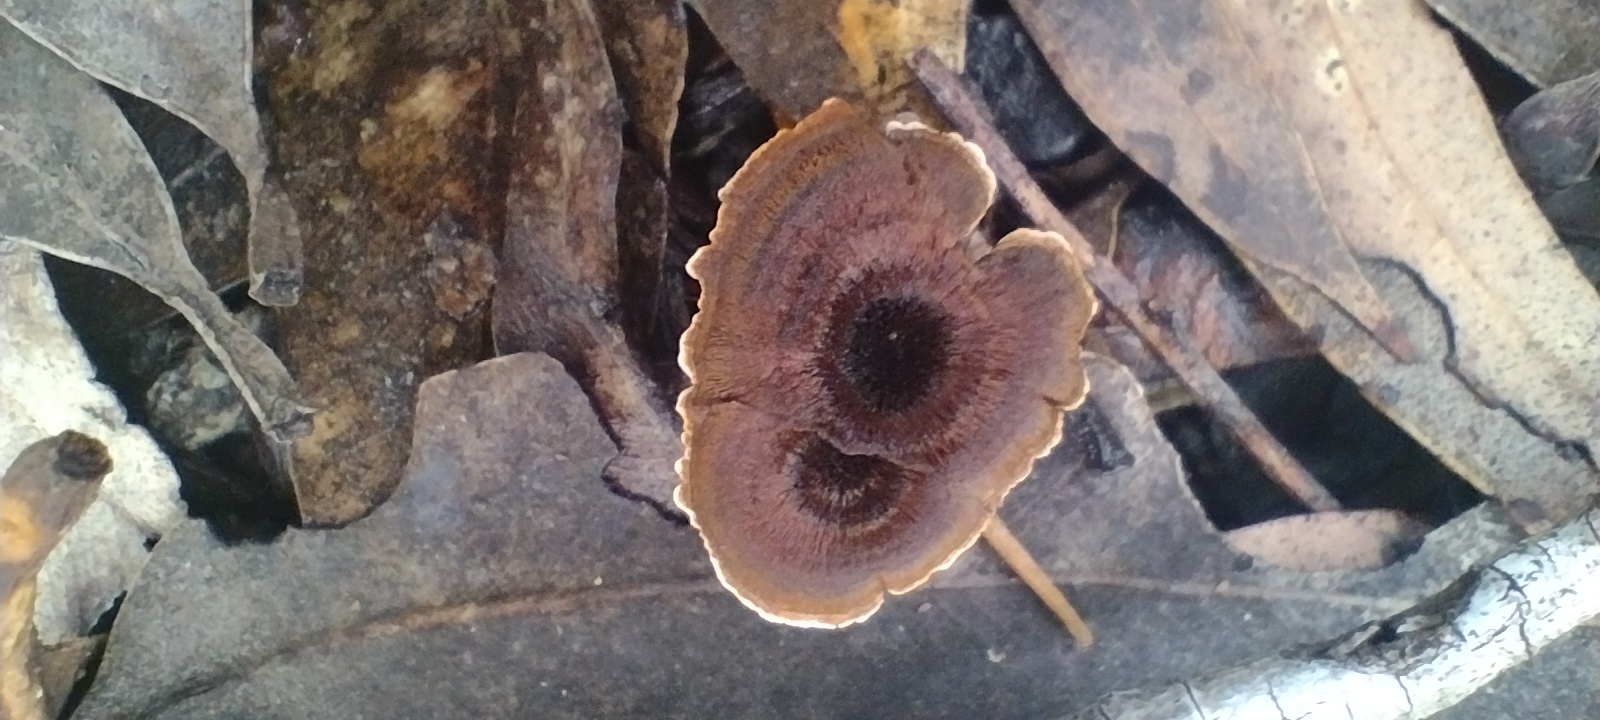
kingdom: Fungi
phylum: Basidiomycota
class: Agaricomycetes
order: Hymenochaetales
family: Hymenochaetaceae
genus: Coltricia
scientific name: Coltricia
